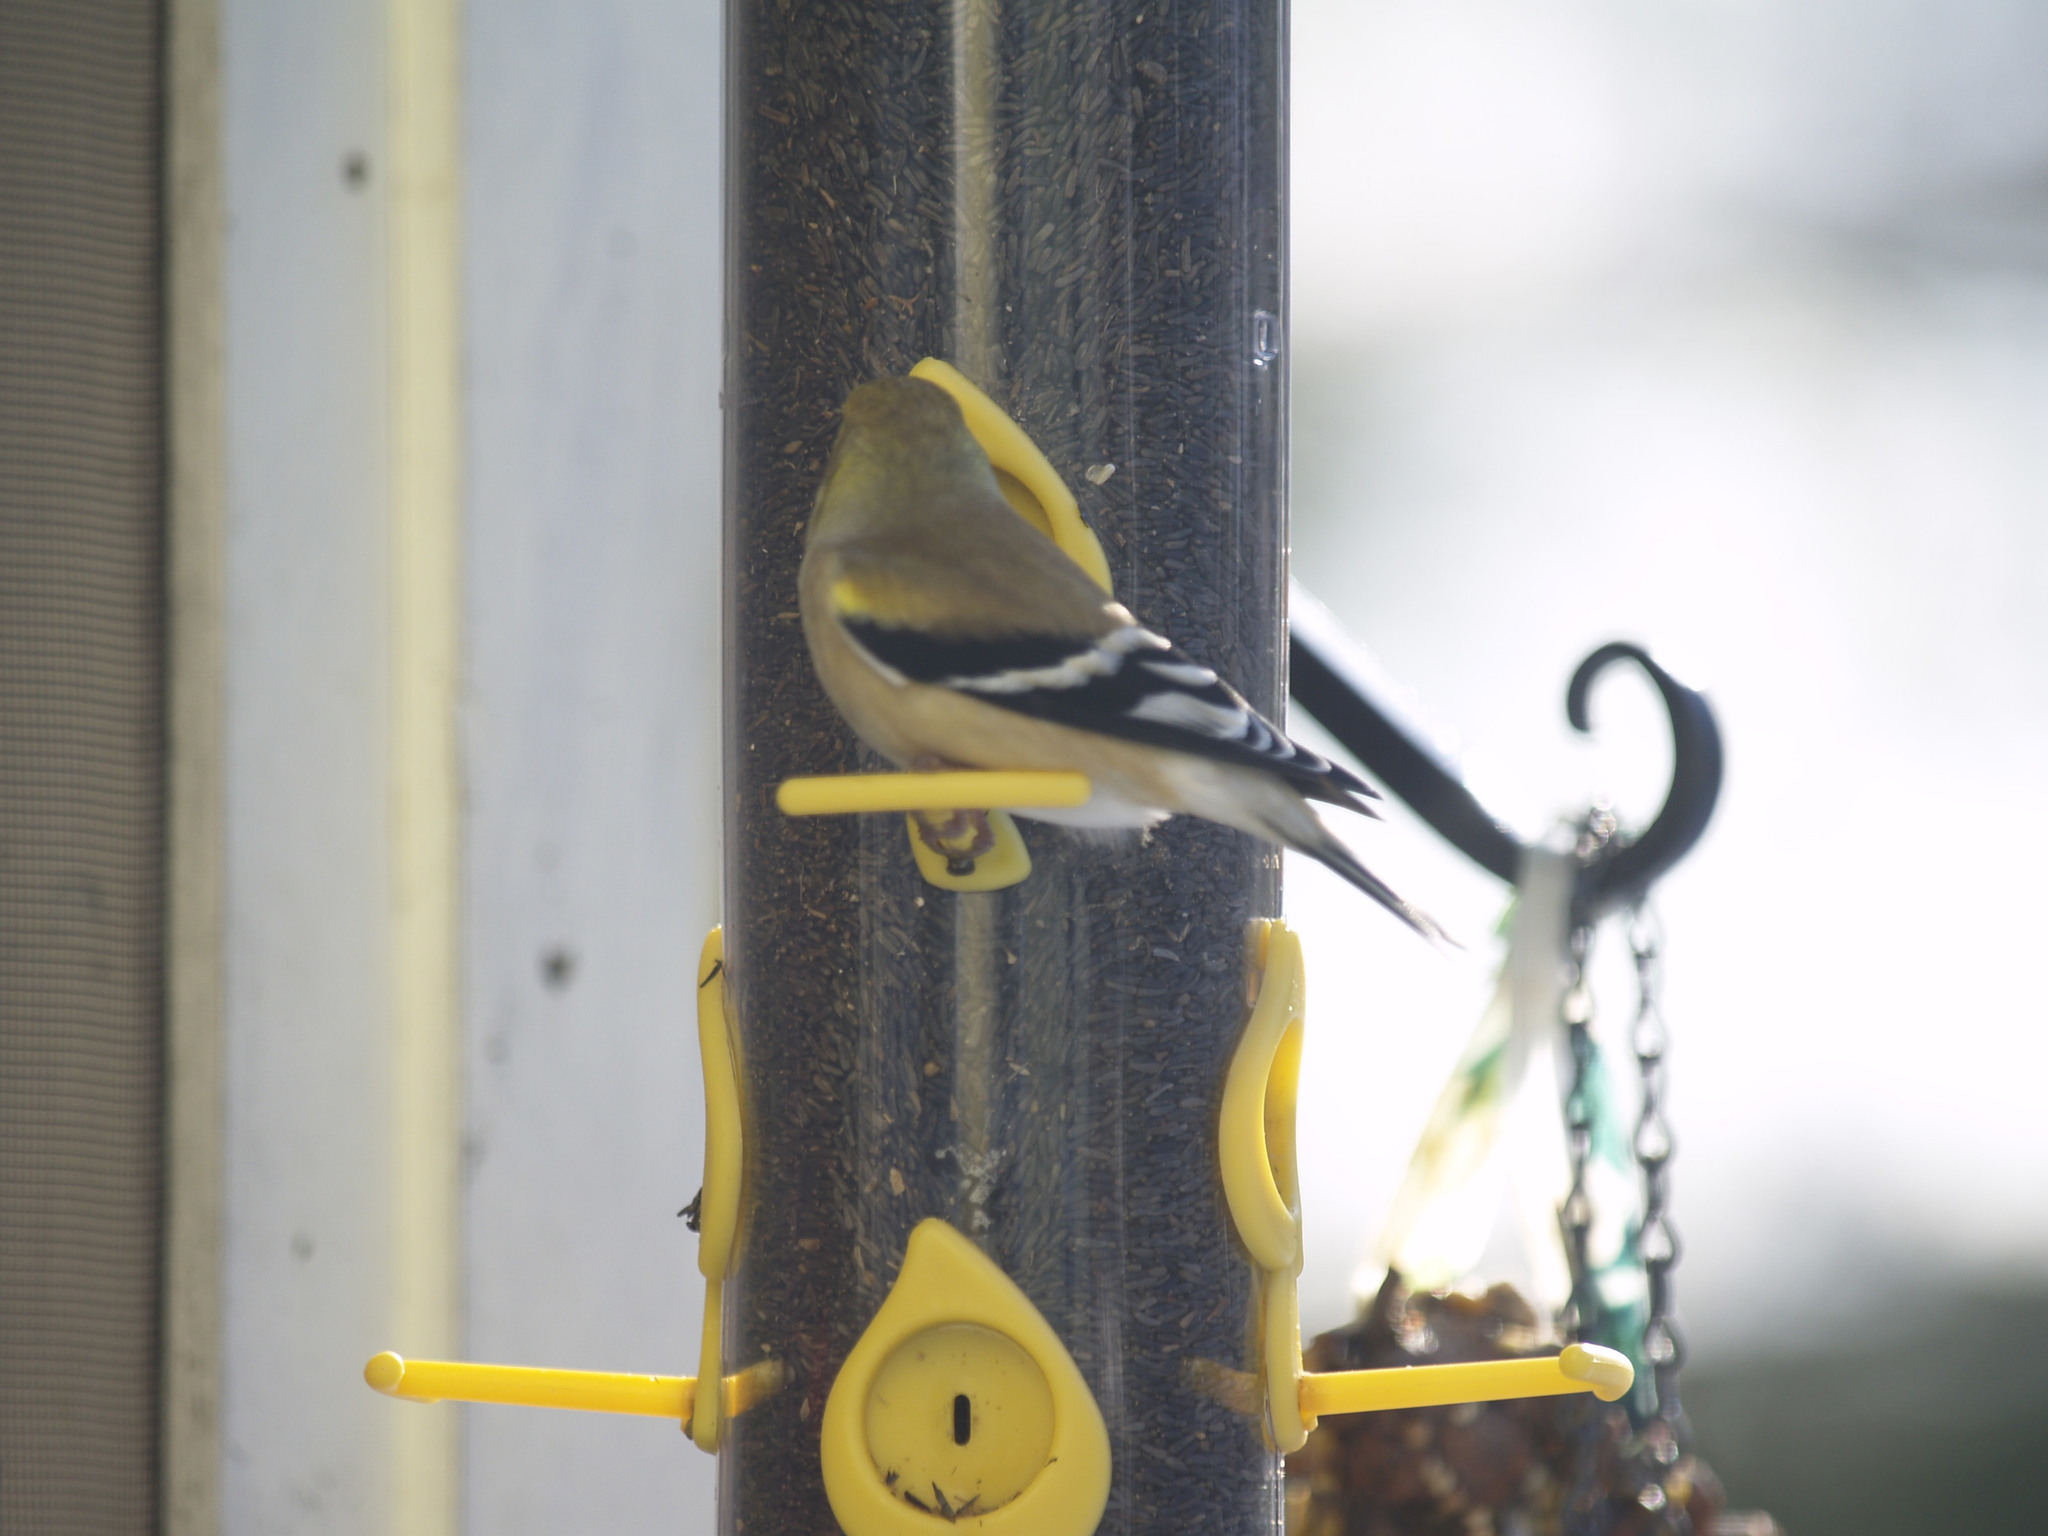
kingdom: Animalia
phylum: Chordata
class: Aves
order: Passeriformes
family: Fringillidae
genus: Spinus
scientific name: Spinus tristis
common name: American goldfinch
